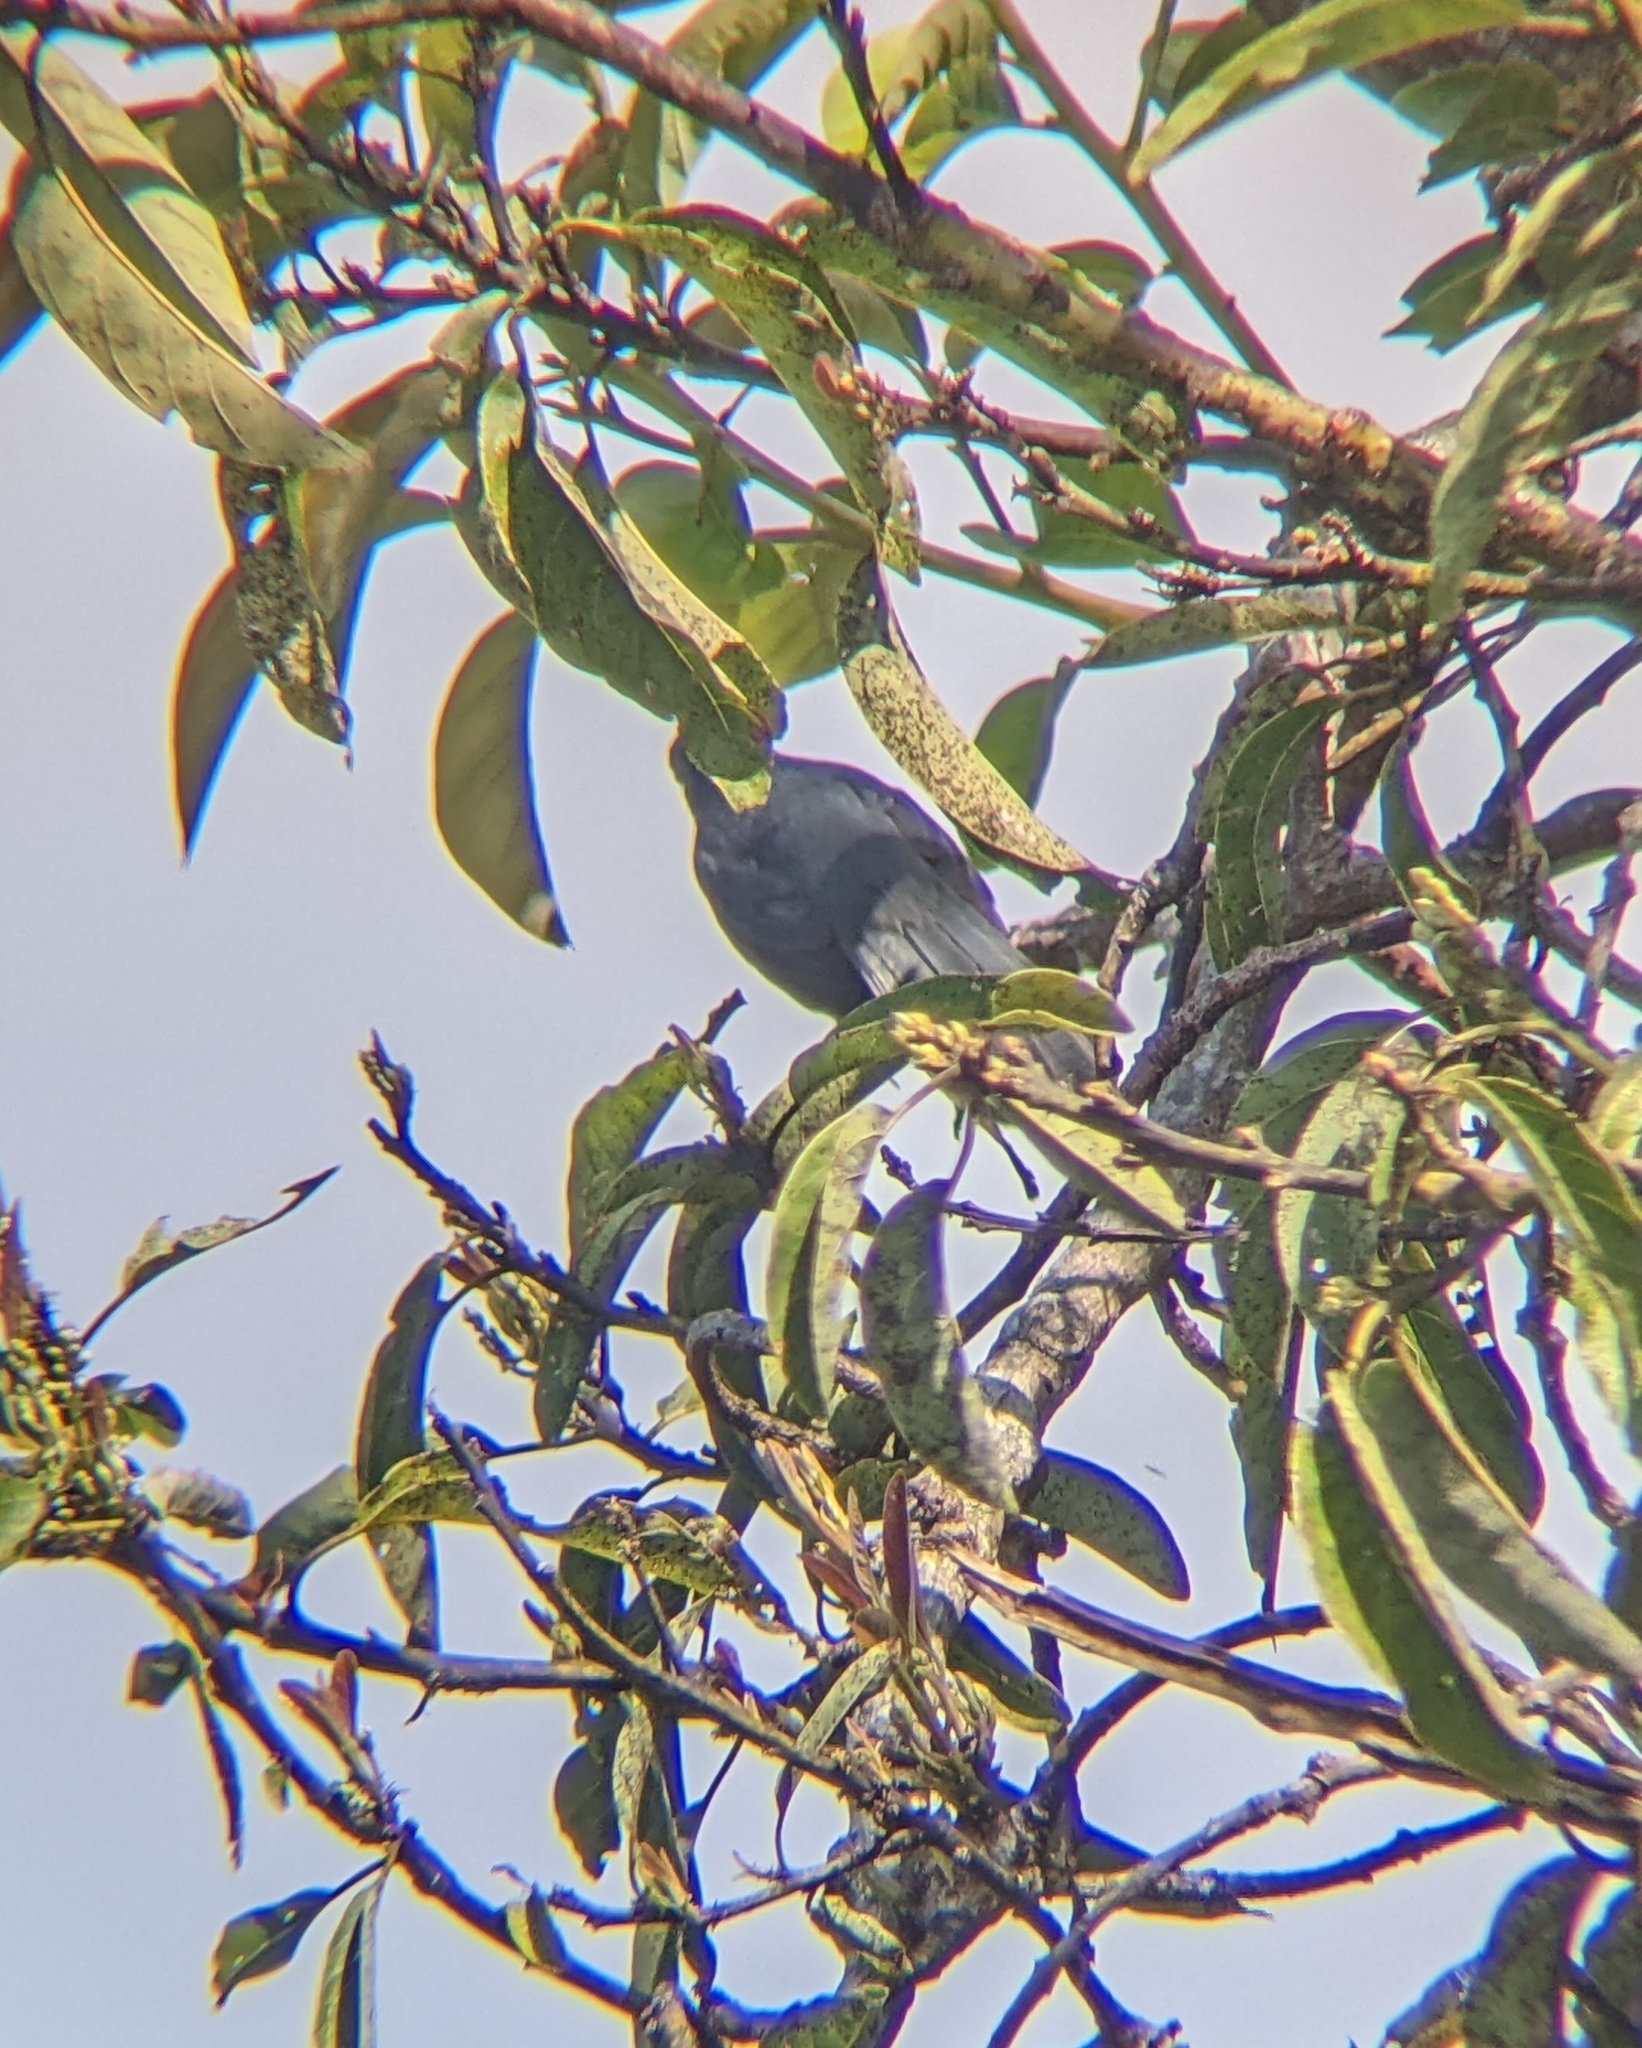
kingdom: Animalia
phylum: Chordata
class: Aves
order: Passeriformes
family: Mimidae
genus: Melanotis
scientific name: Melanotis caerulescens
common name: Blue mockingbird
